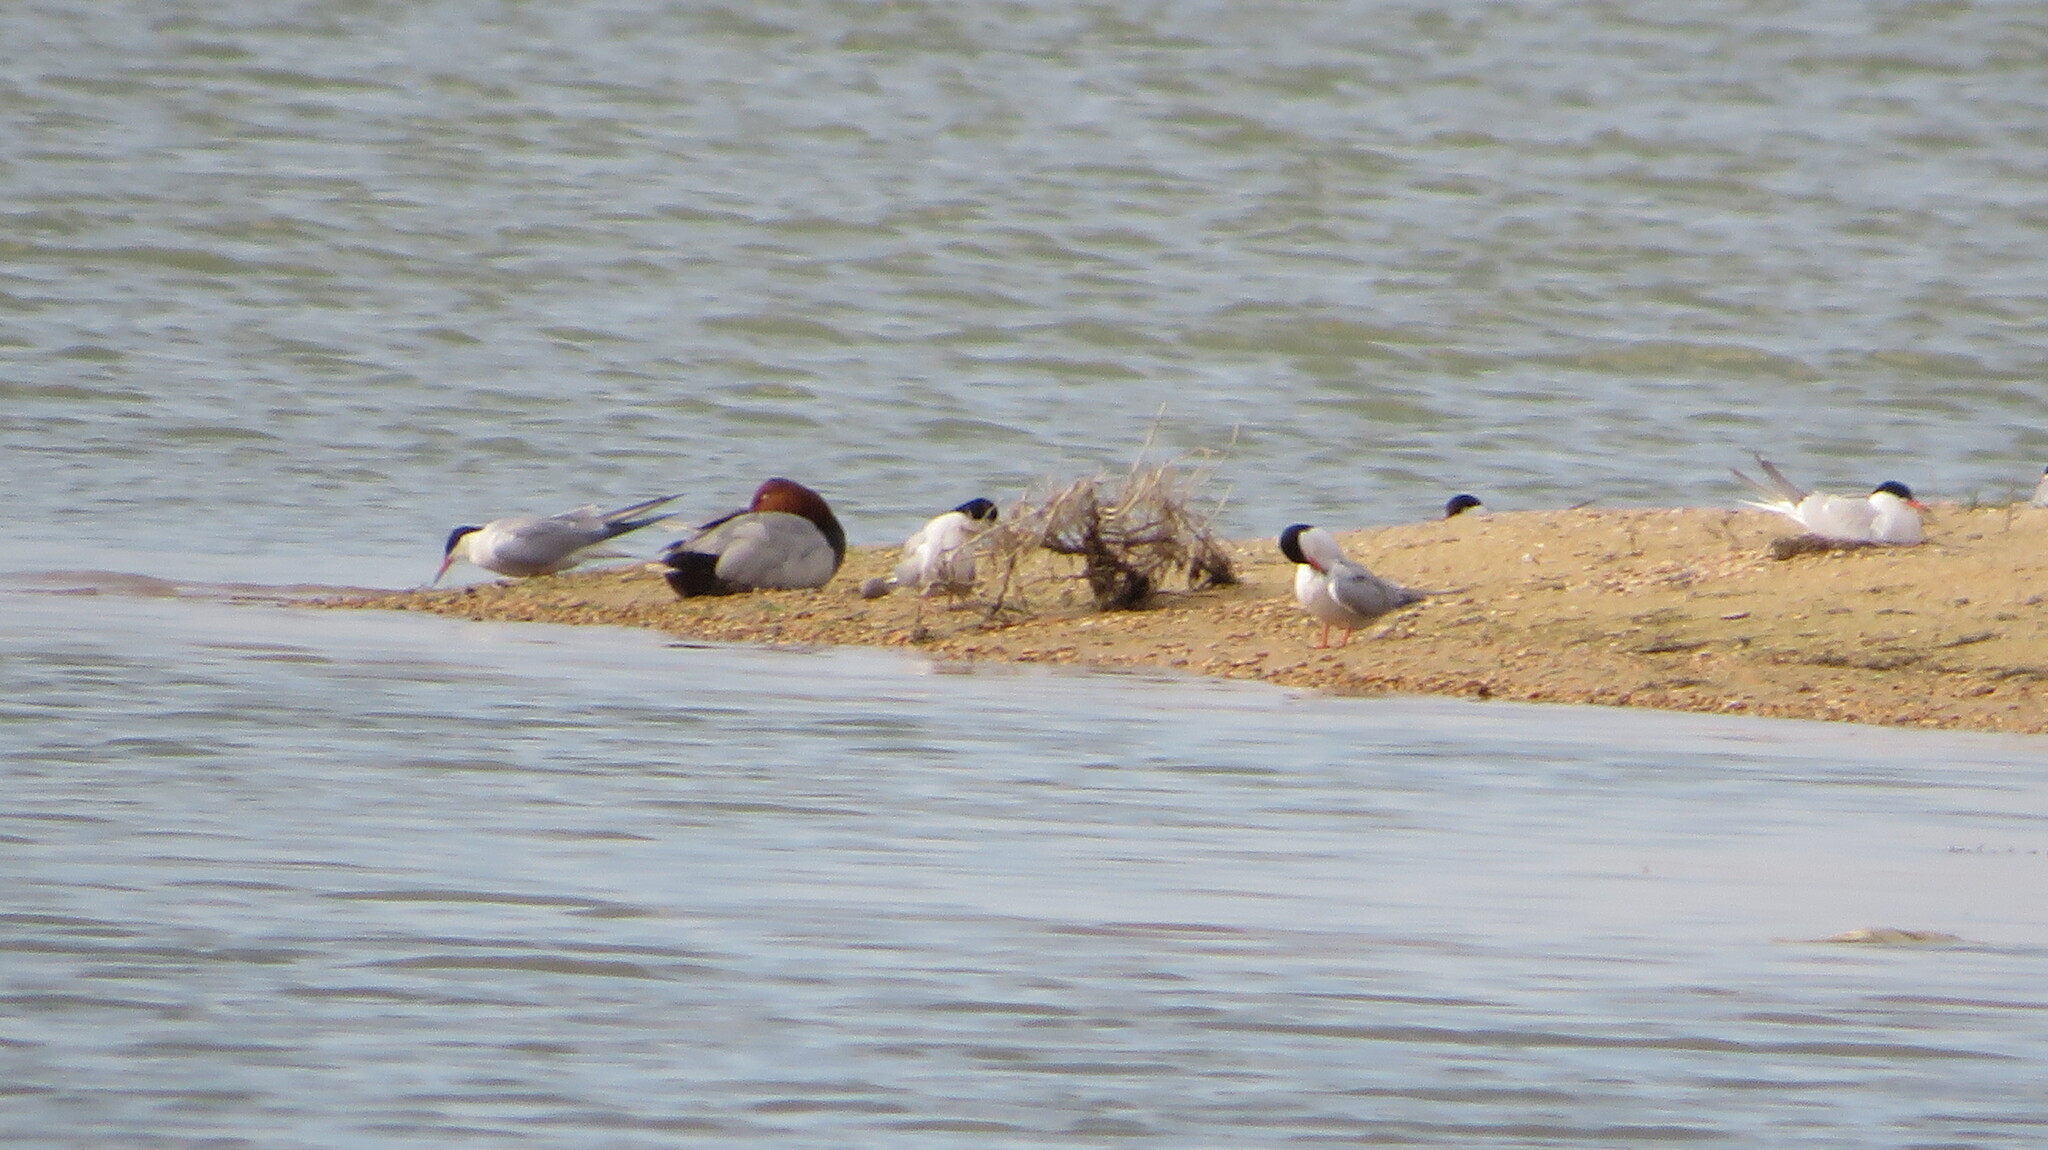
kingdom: Animalia
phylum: Chordata
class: Aves
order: Anseriformes
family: Anatidae
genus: Aythya
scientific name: Aythya ferina
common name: Common pochard
